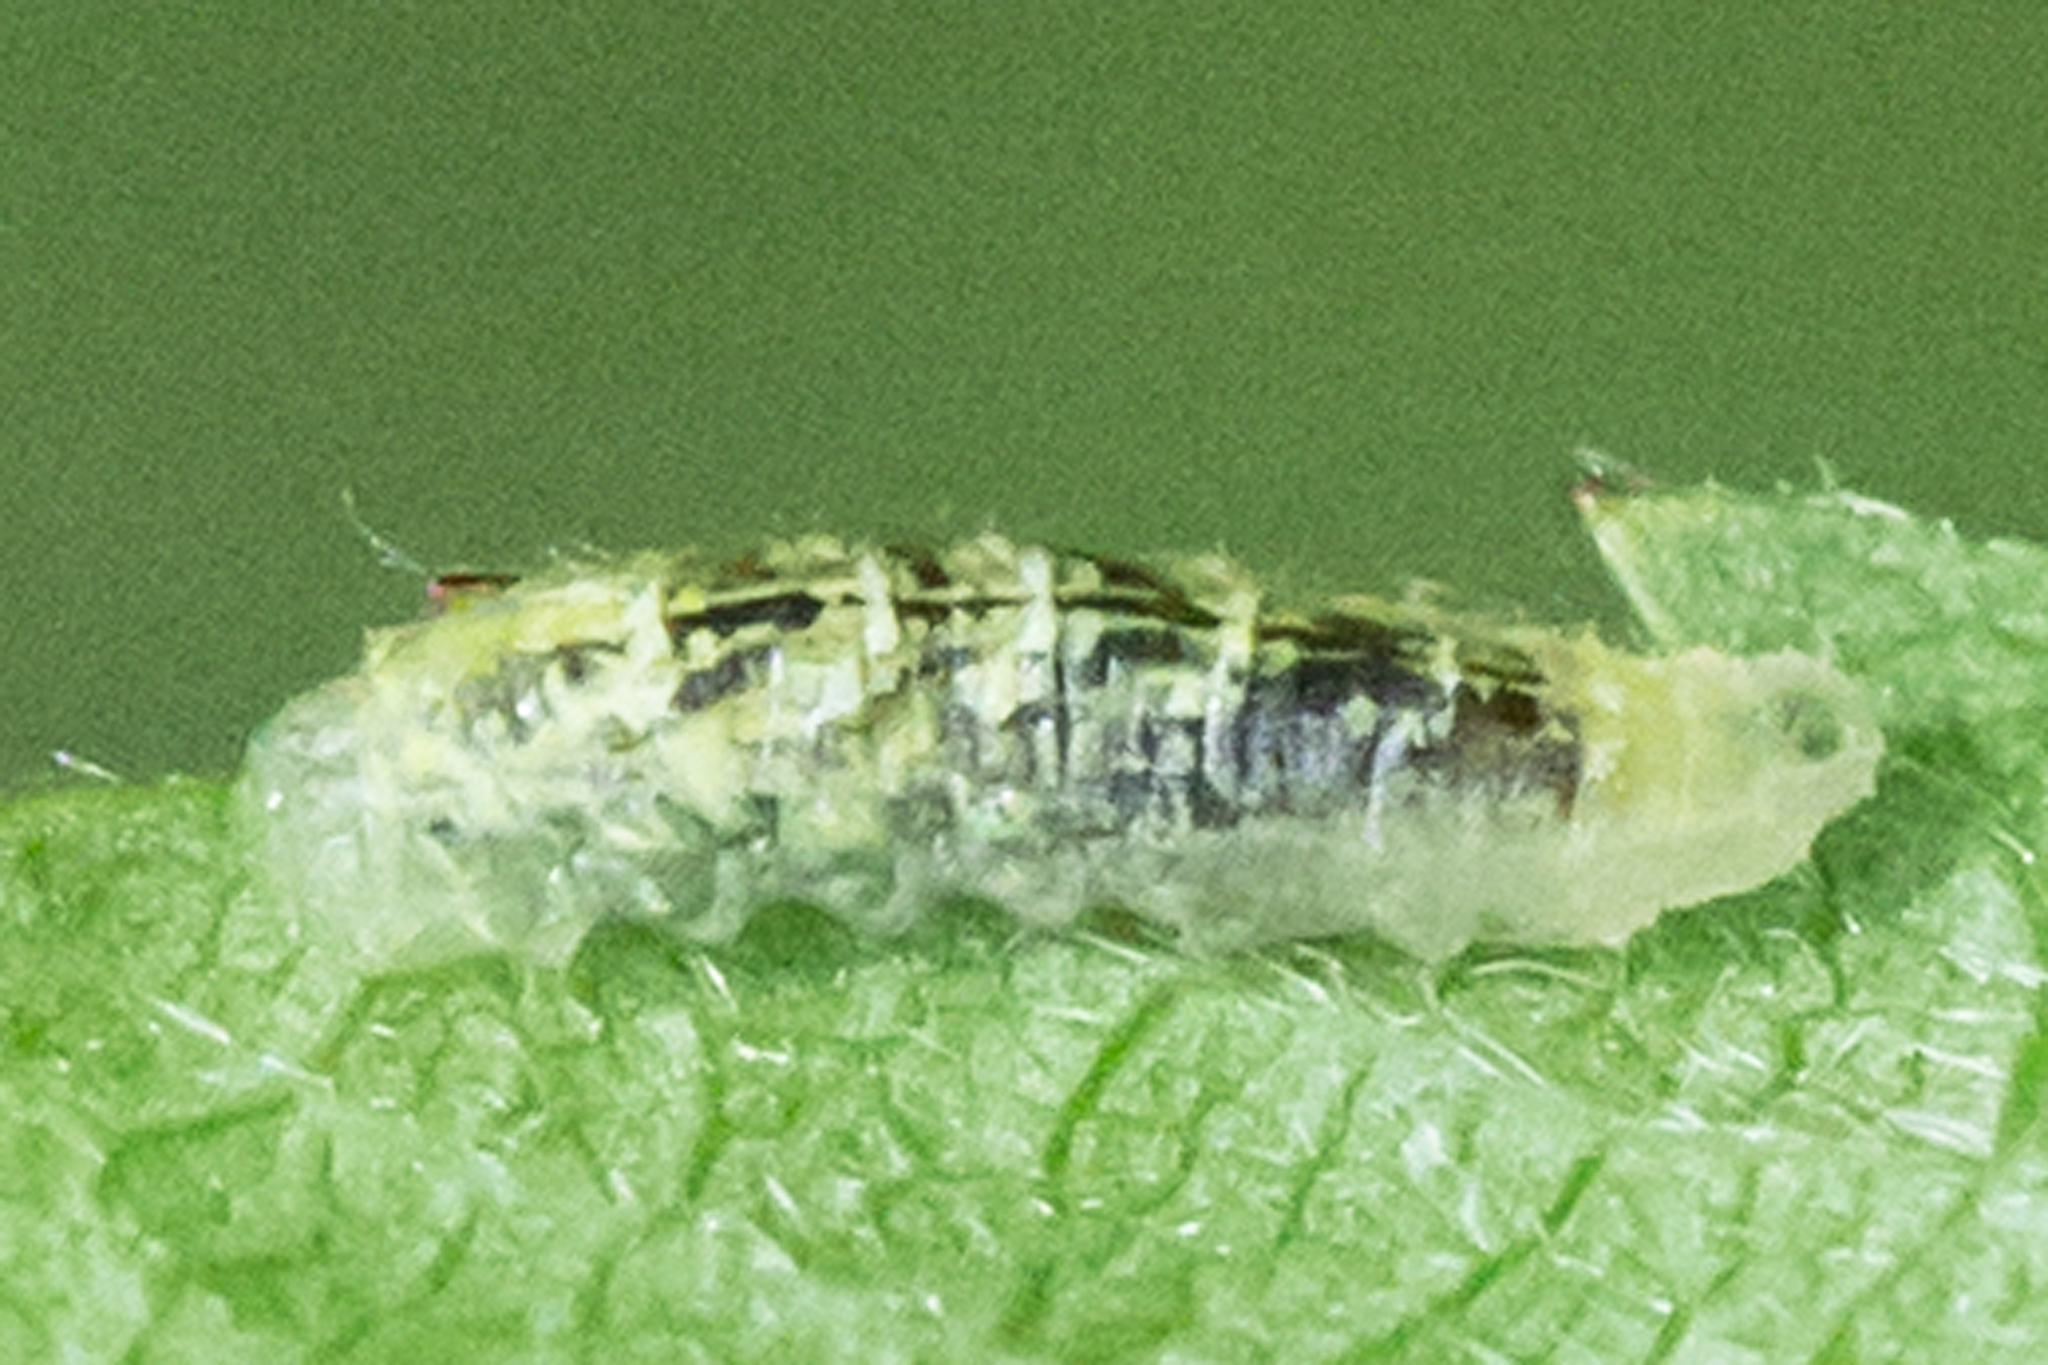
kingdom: Animalia
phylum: Arthropoda
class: Insecta
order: Diptera
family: Syrphidae
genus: Syrphus
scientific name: Syrphus
